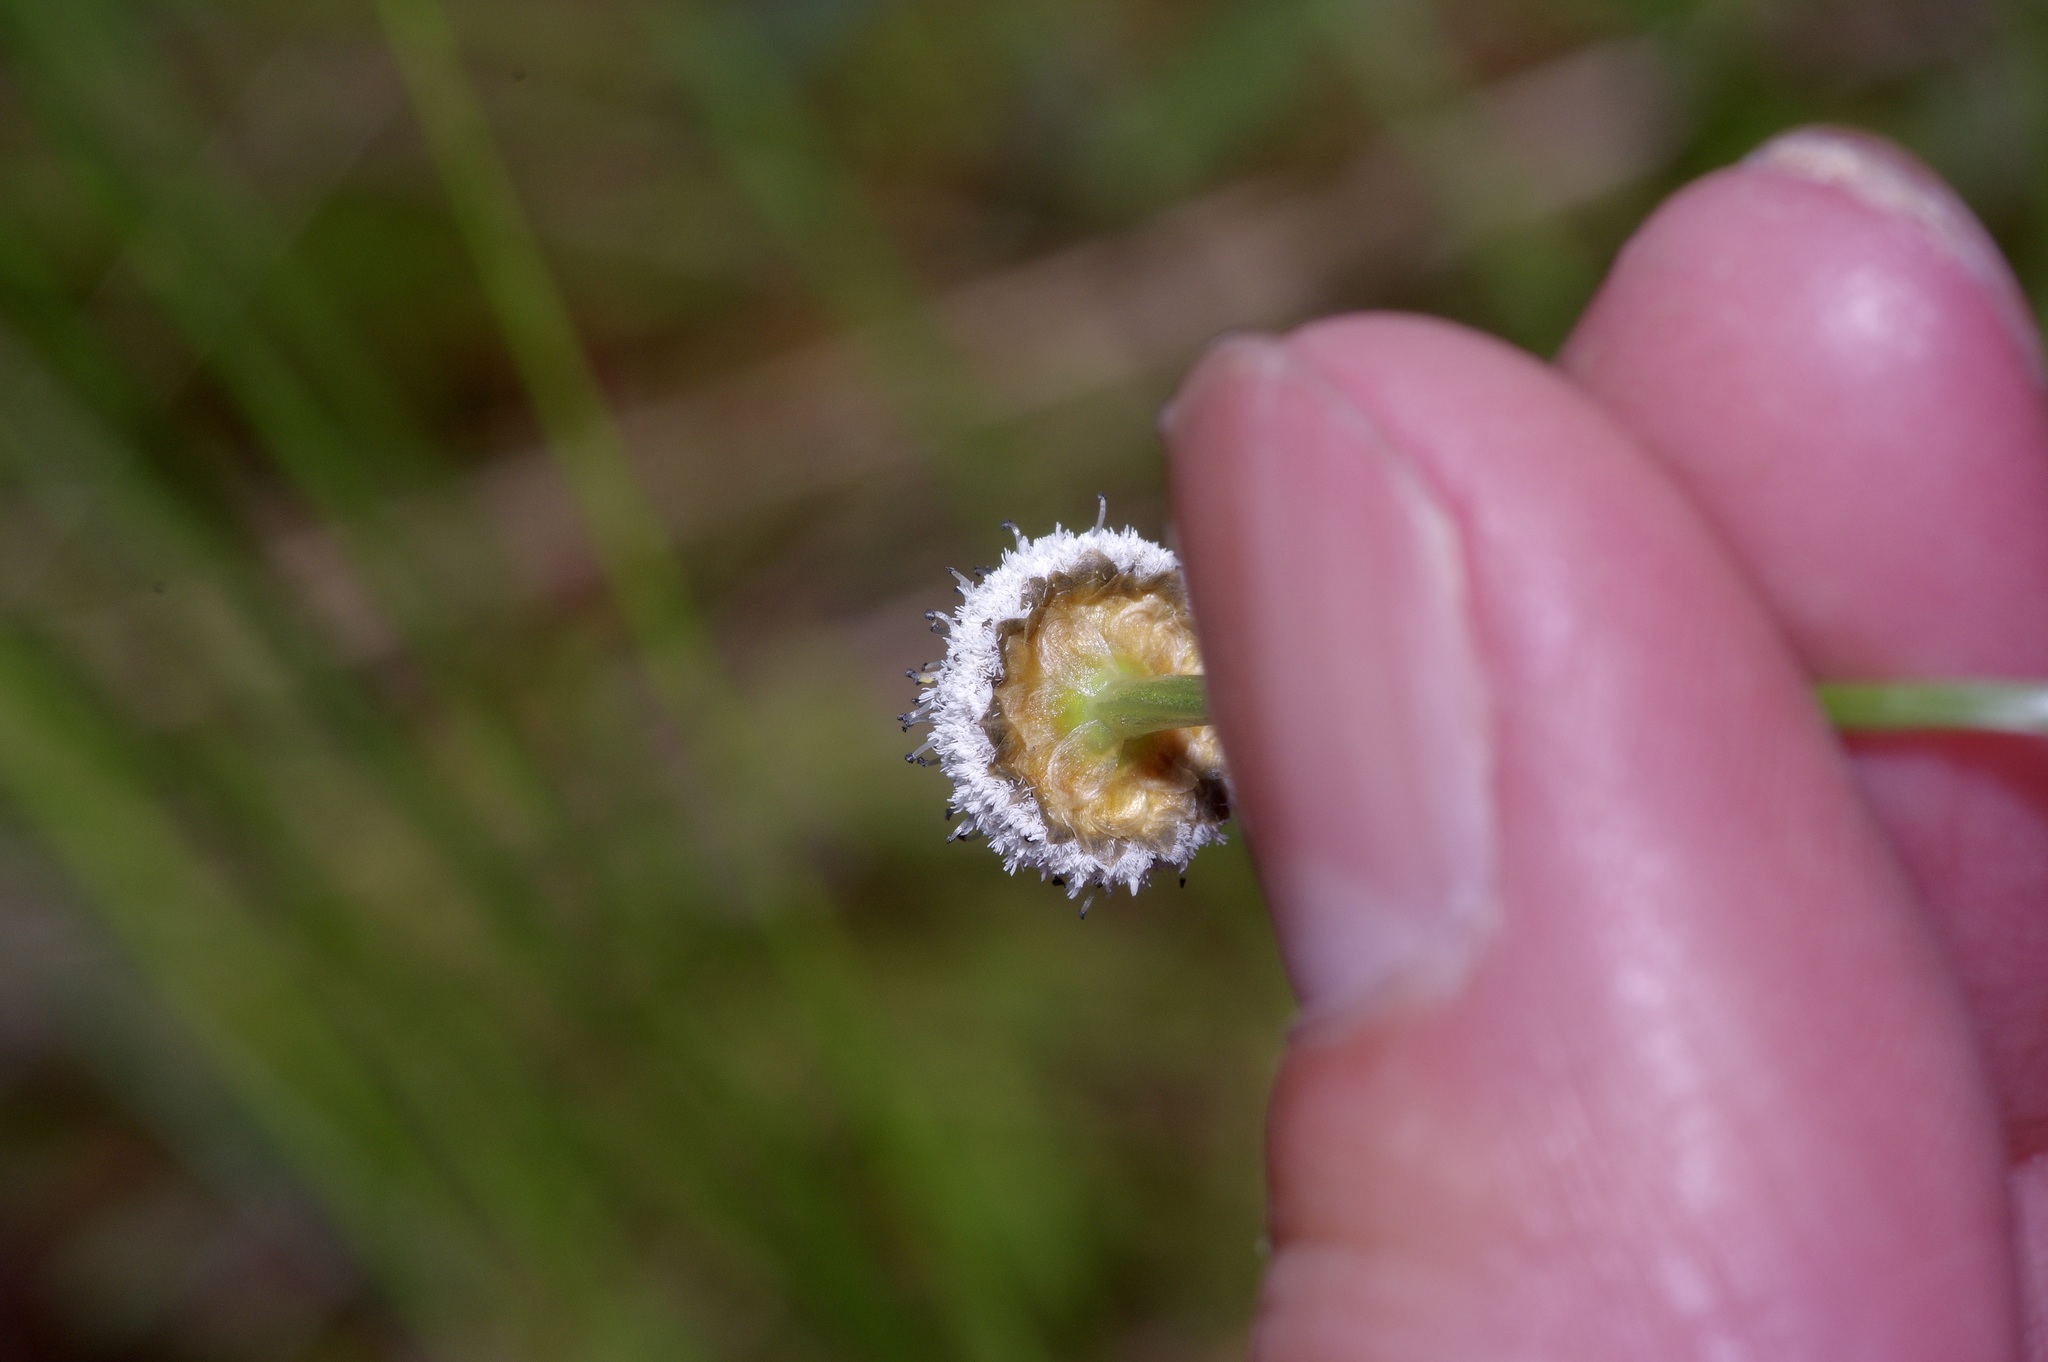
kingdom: Plantae
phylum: Tracheophyta
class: Liliopsida
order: Poales
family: Eriocaulaceae
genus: Eriocaulon
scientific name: Eriocaulon decangulare
